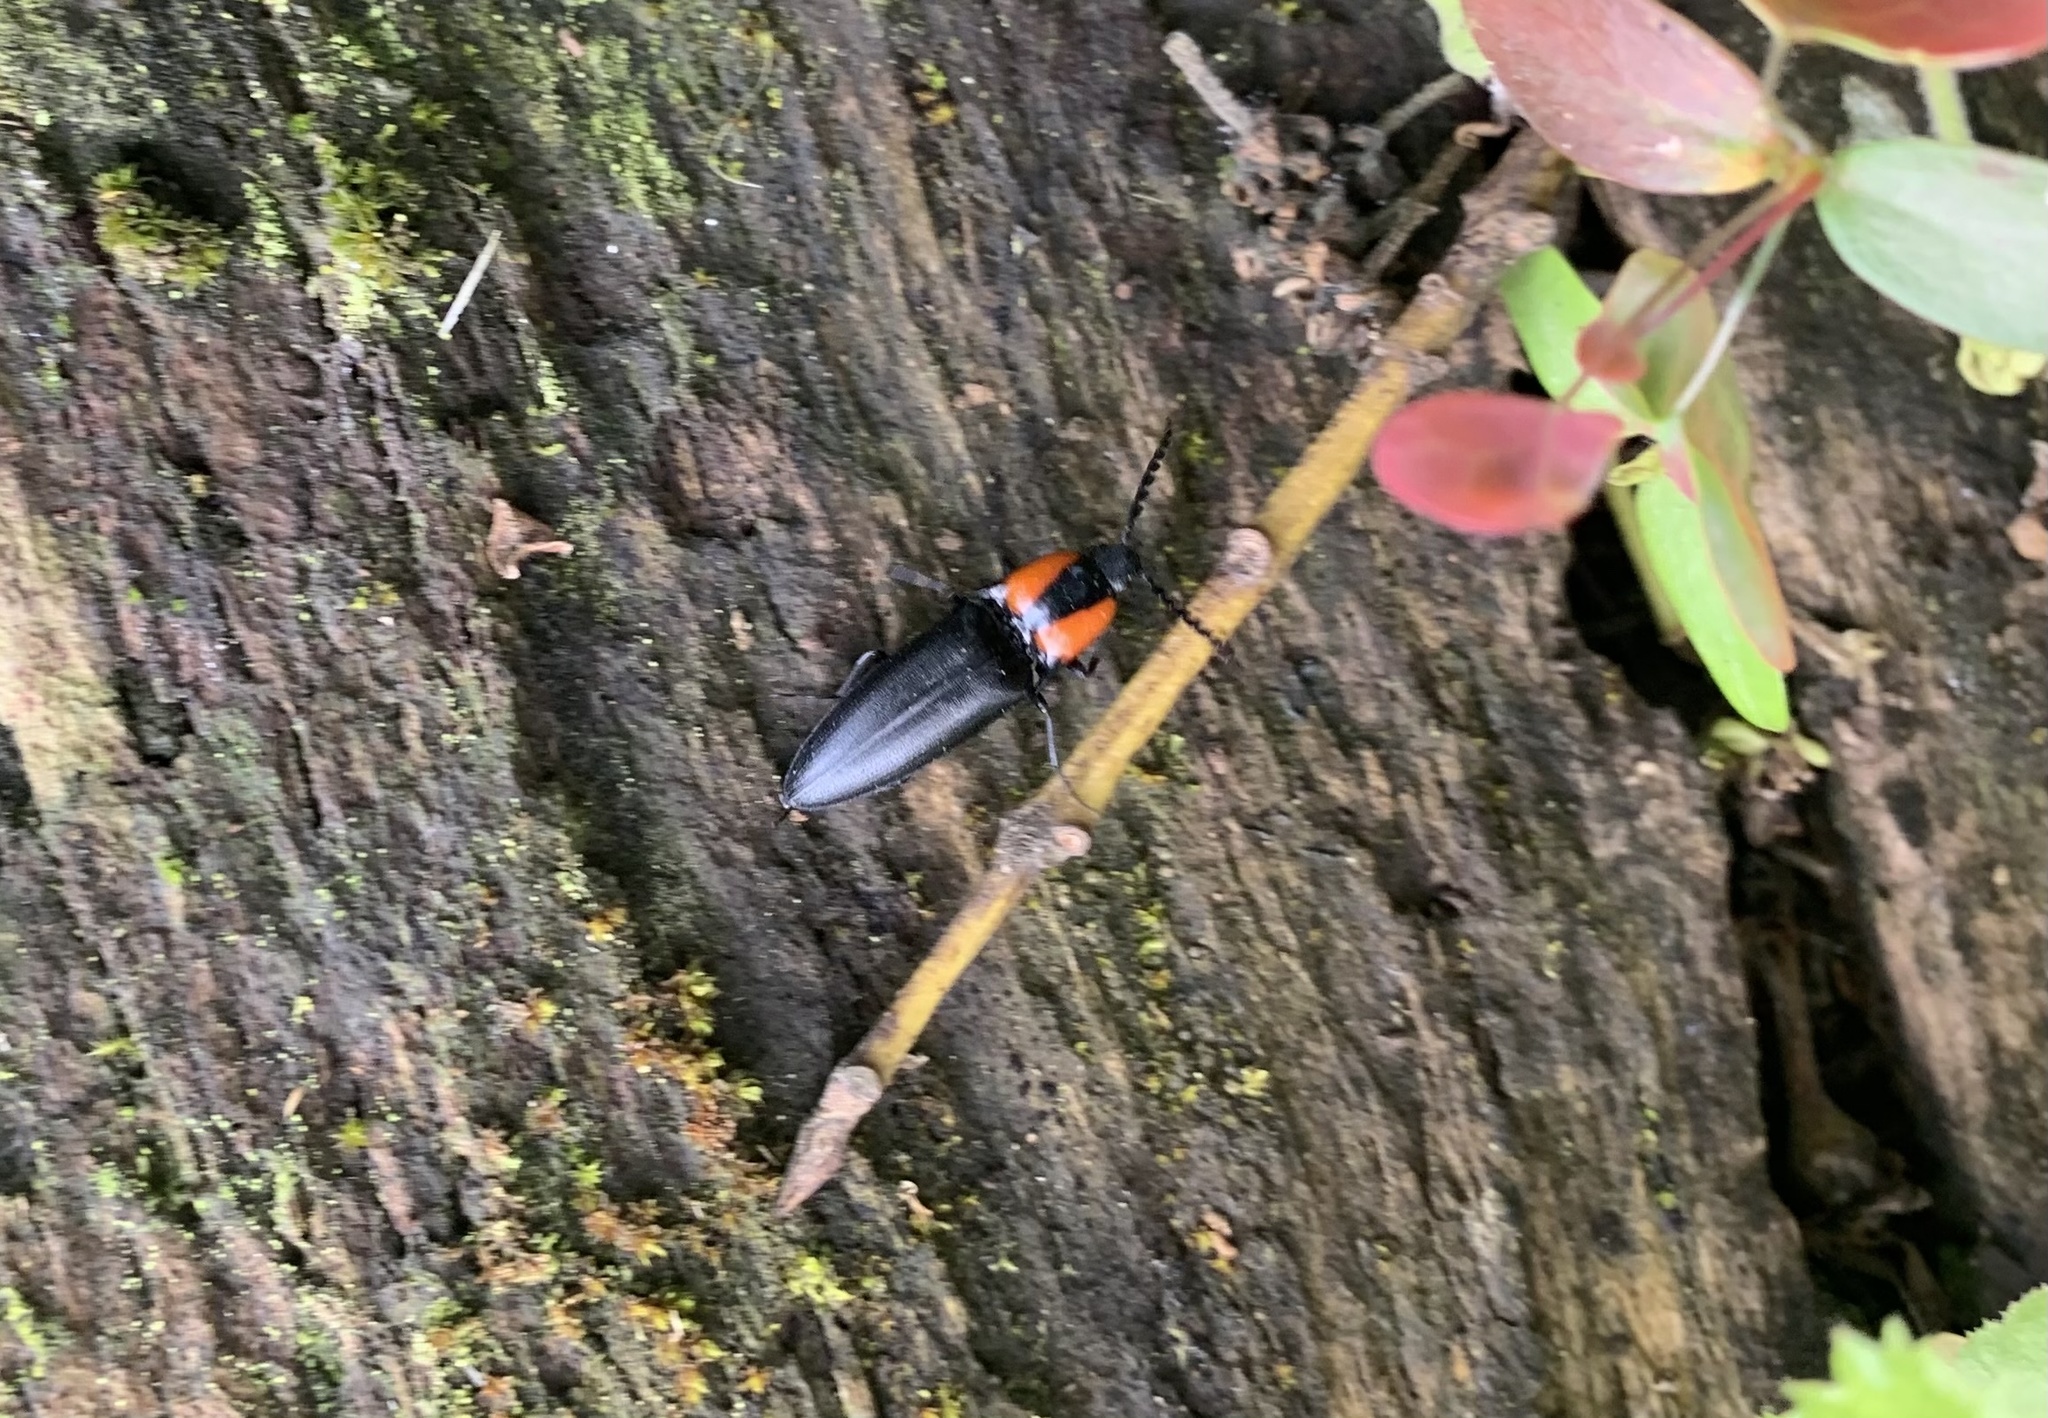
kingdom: Animalia
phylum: Arthropoda
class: Insecta
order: Coleoptera
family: Elateridae
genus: Elater
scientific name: Elater
